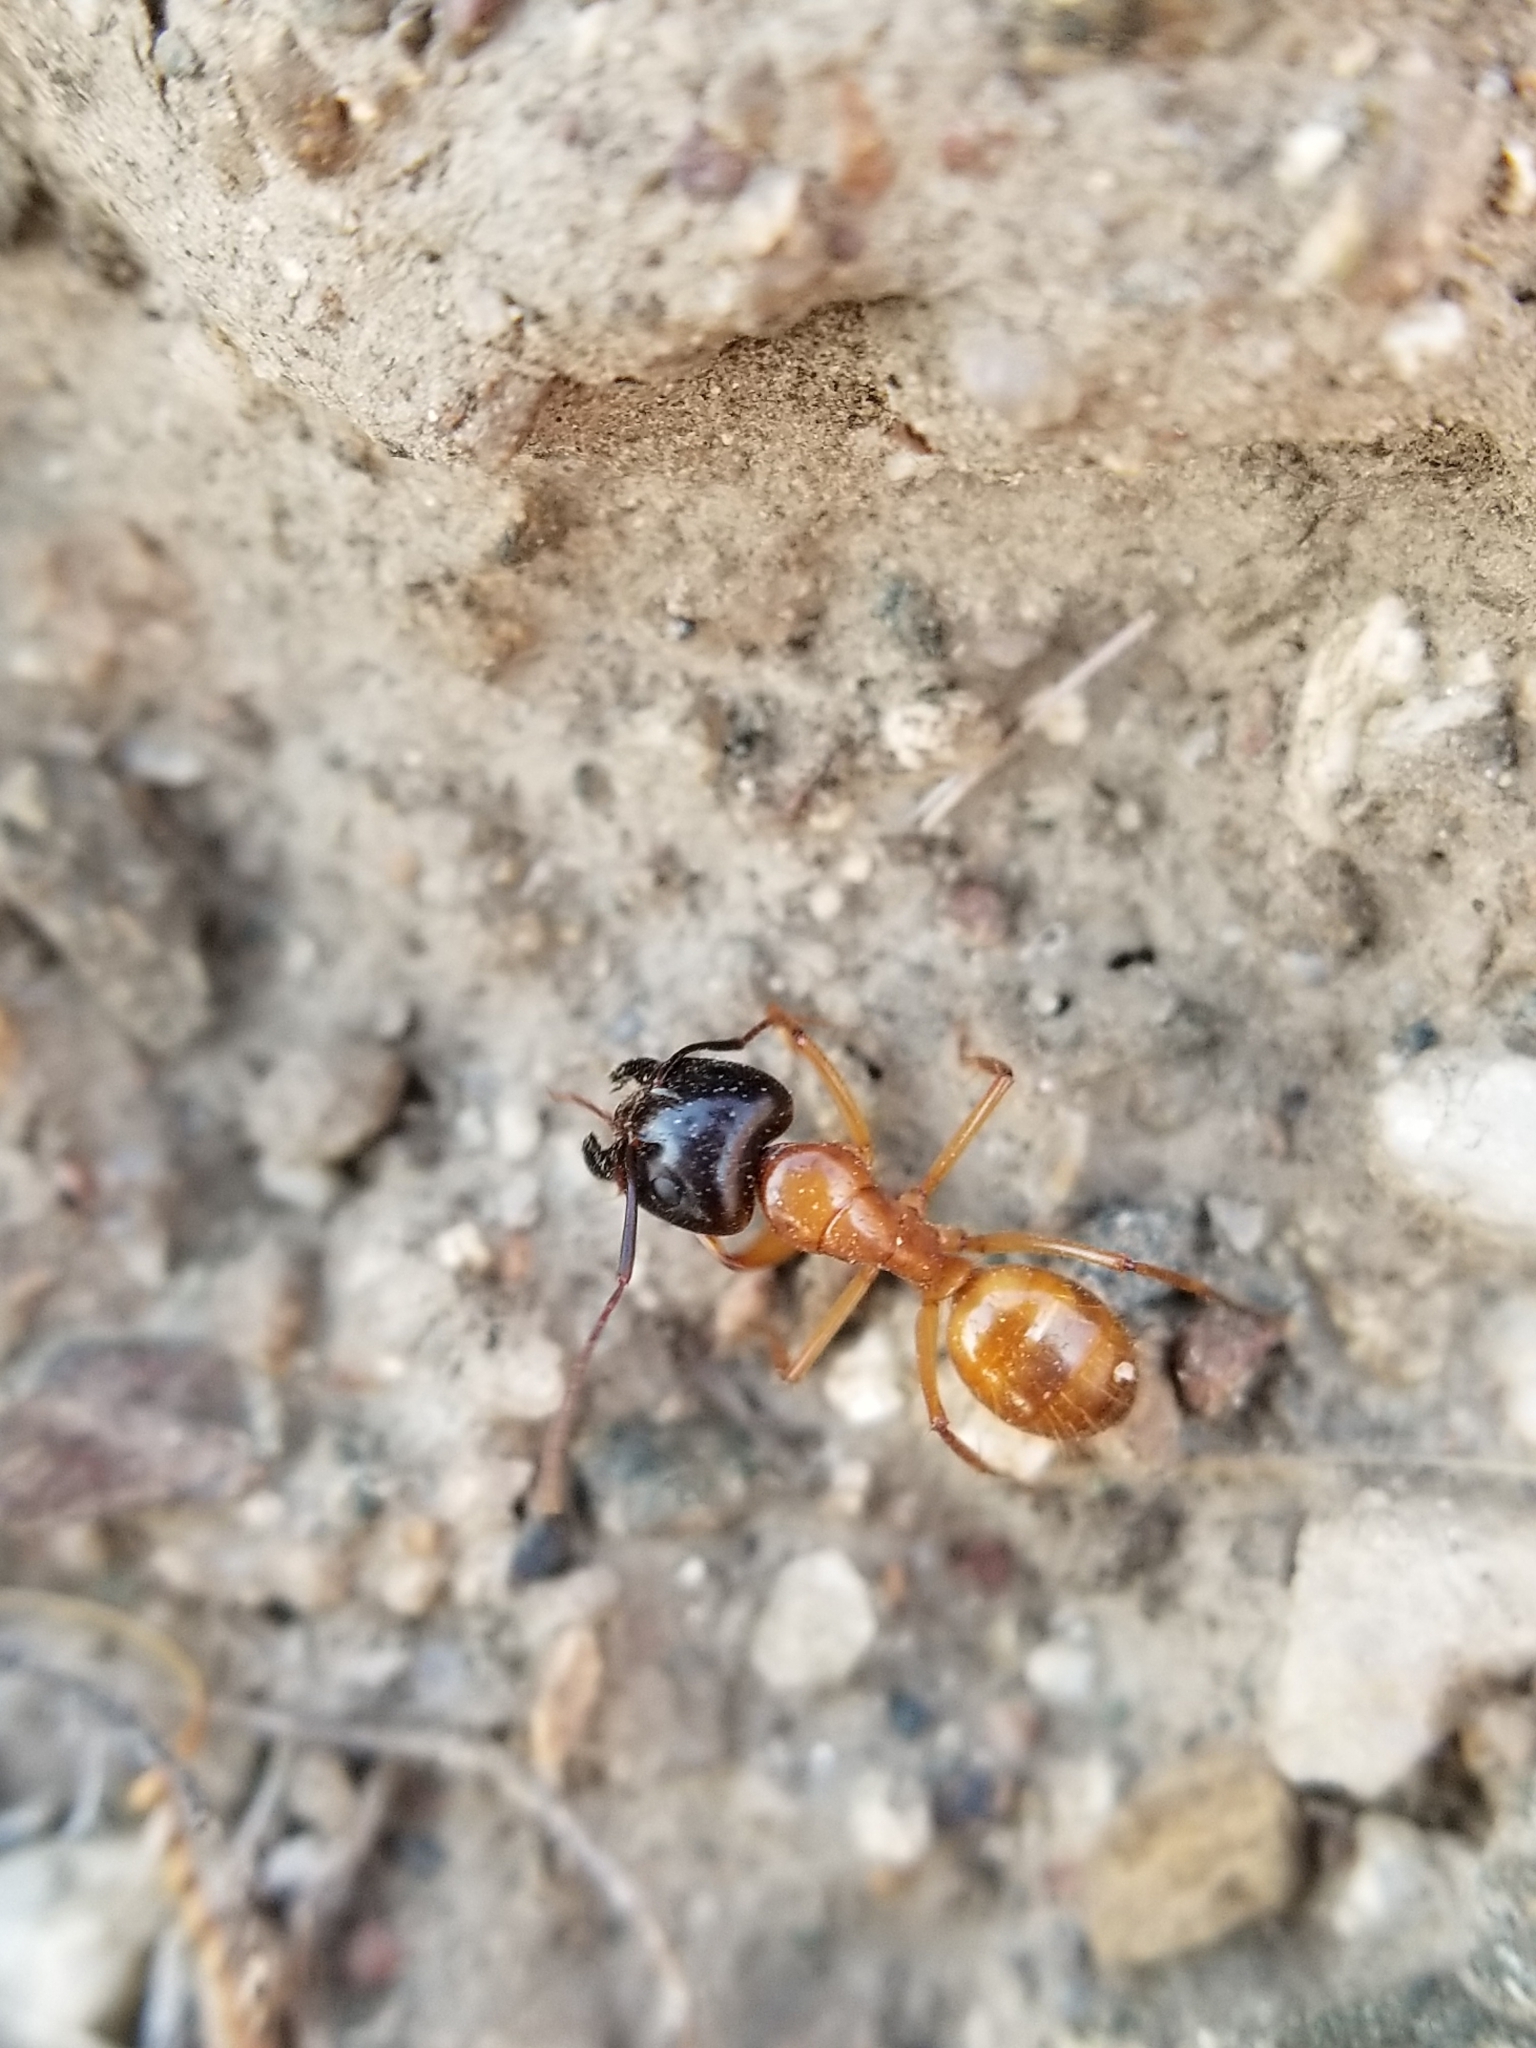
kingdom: Animalia
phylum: Arthropoda
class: Insecta
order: Hymenoptera
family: Formicidae
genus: Camponotus
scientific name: Camponotus sansabeanus
